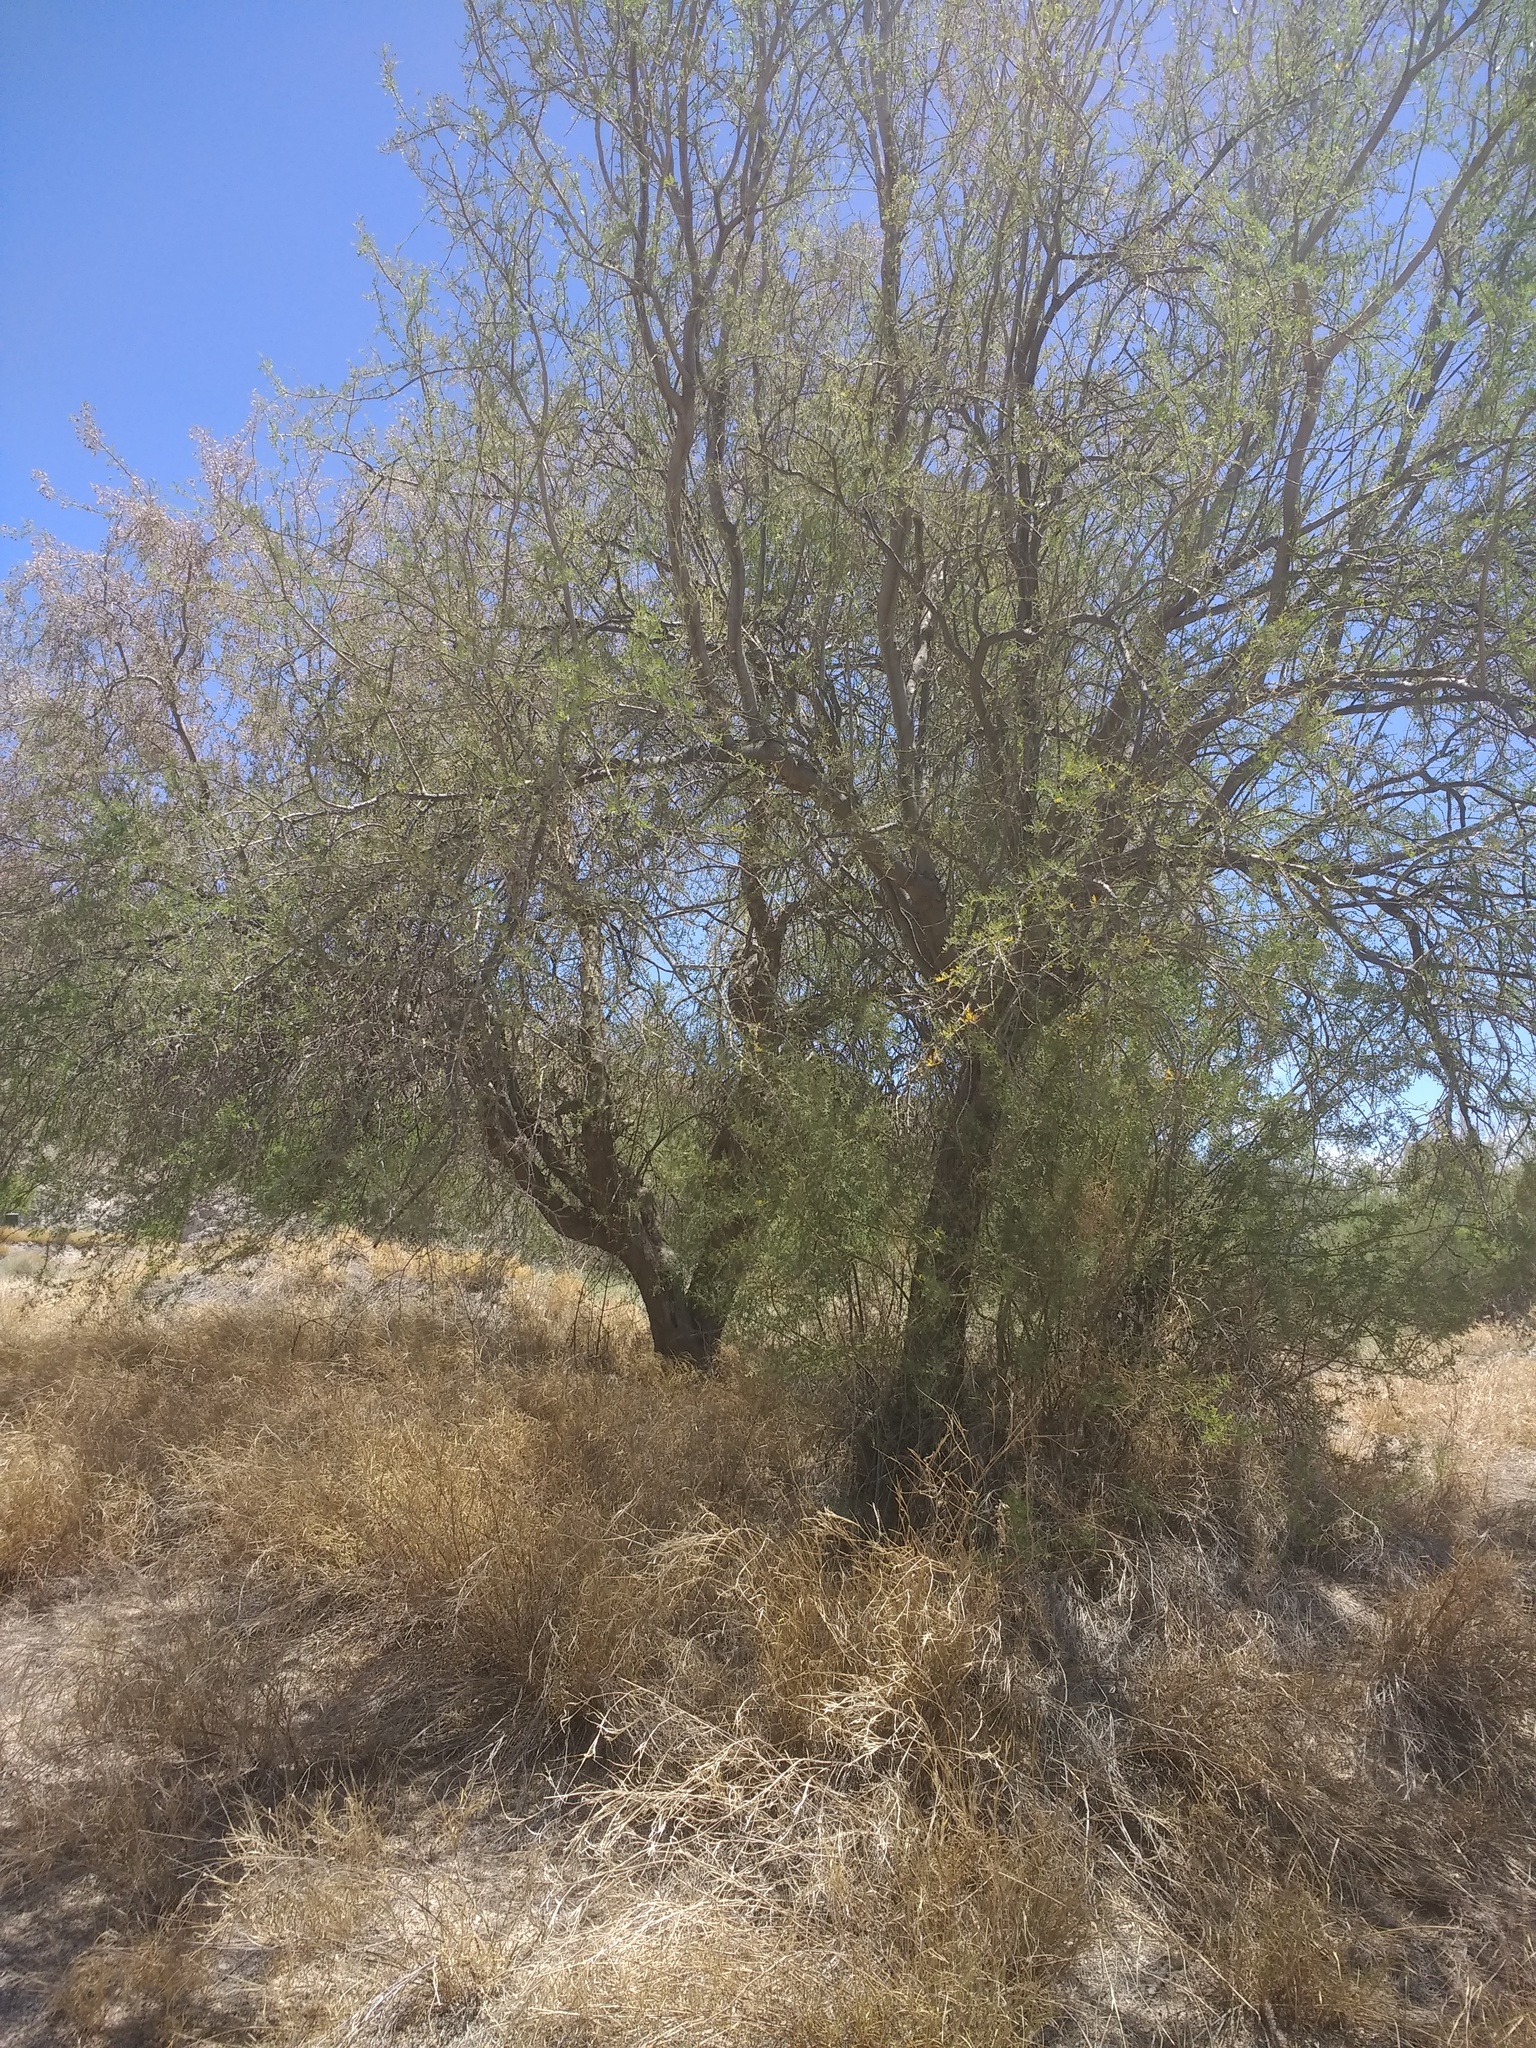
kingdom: Plantae
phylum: Tracheophyta
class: Magnoliopsida
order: Fabales
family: Fabaceae
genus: Olneya
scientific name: Olneya tesota
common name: Desert ironwood
